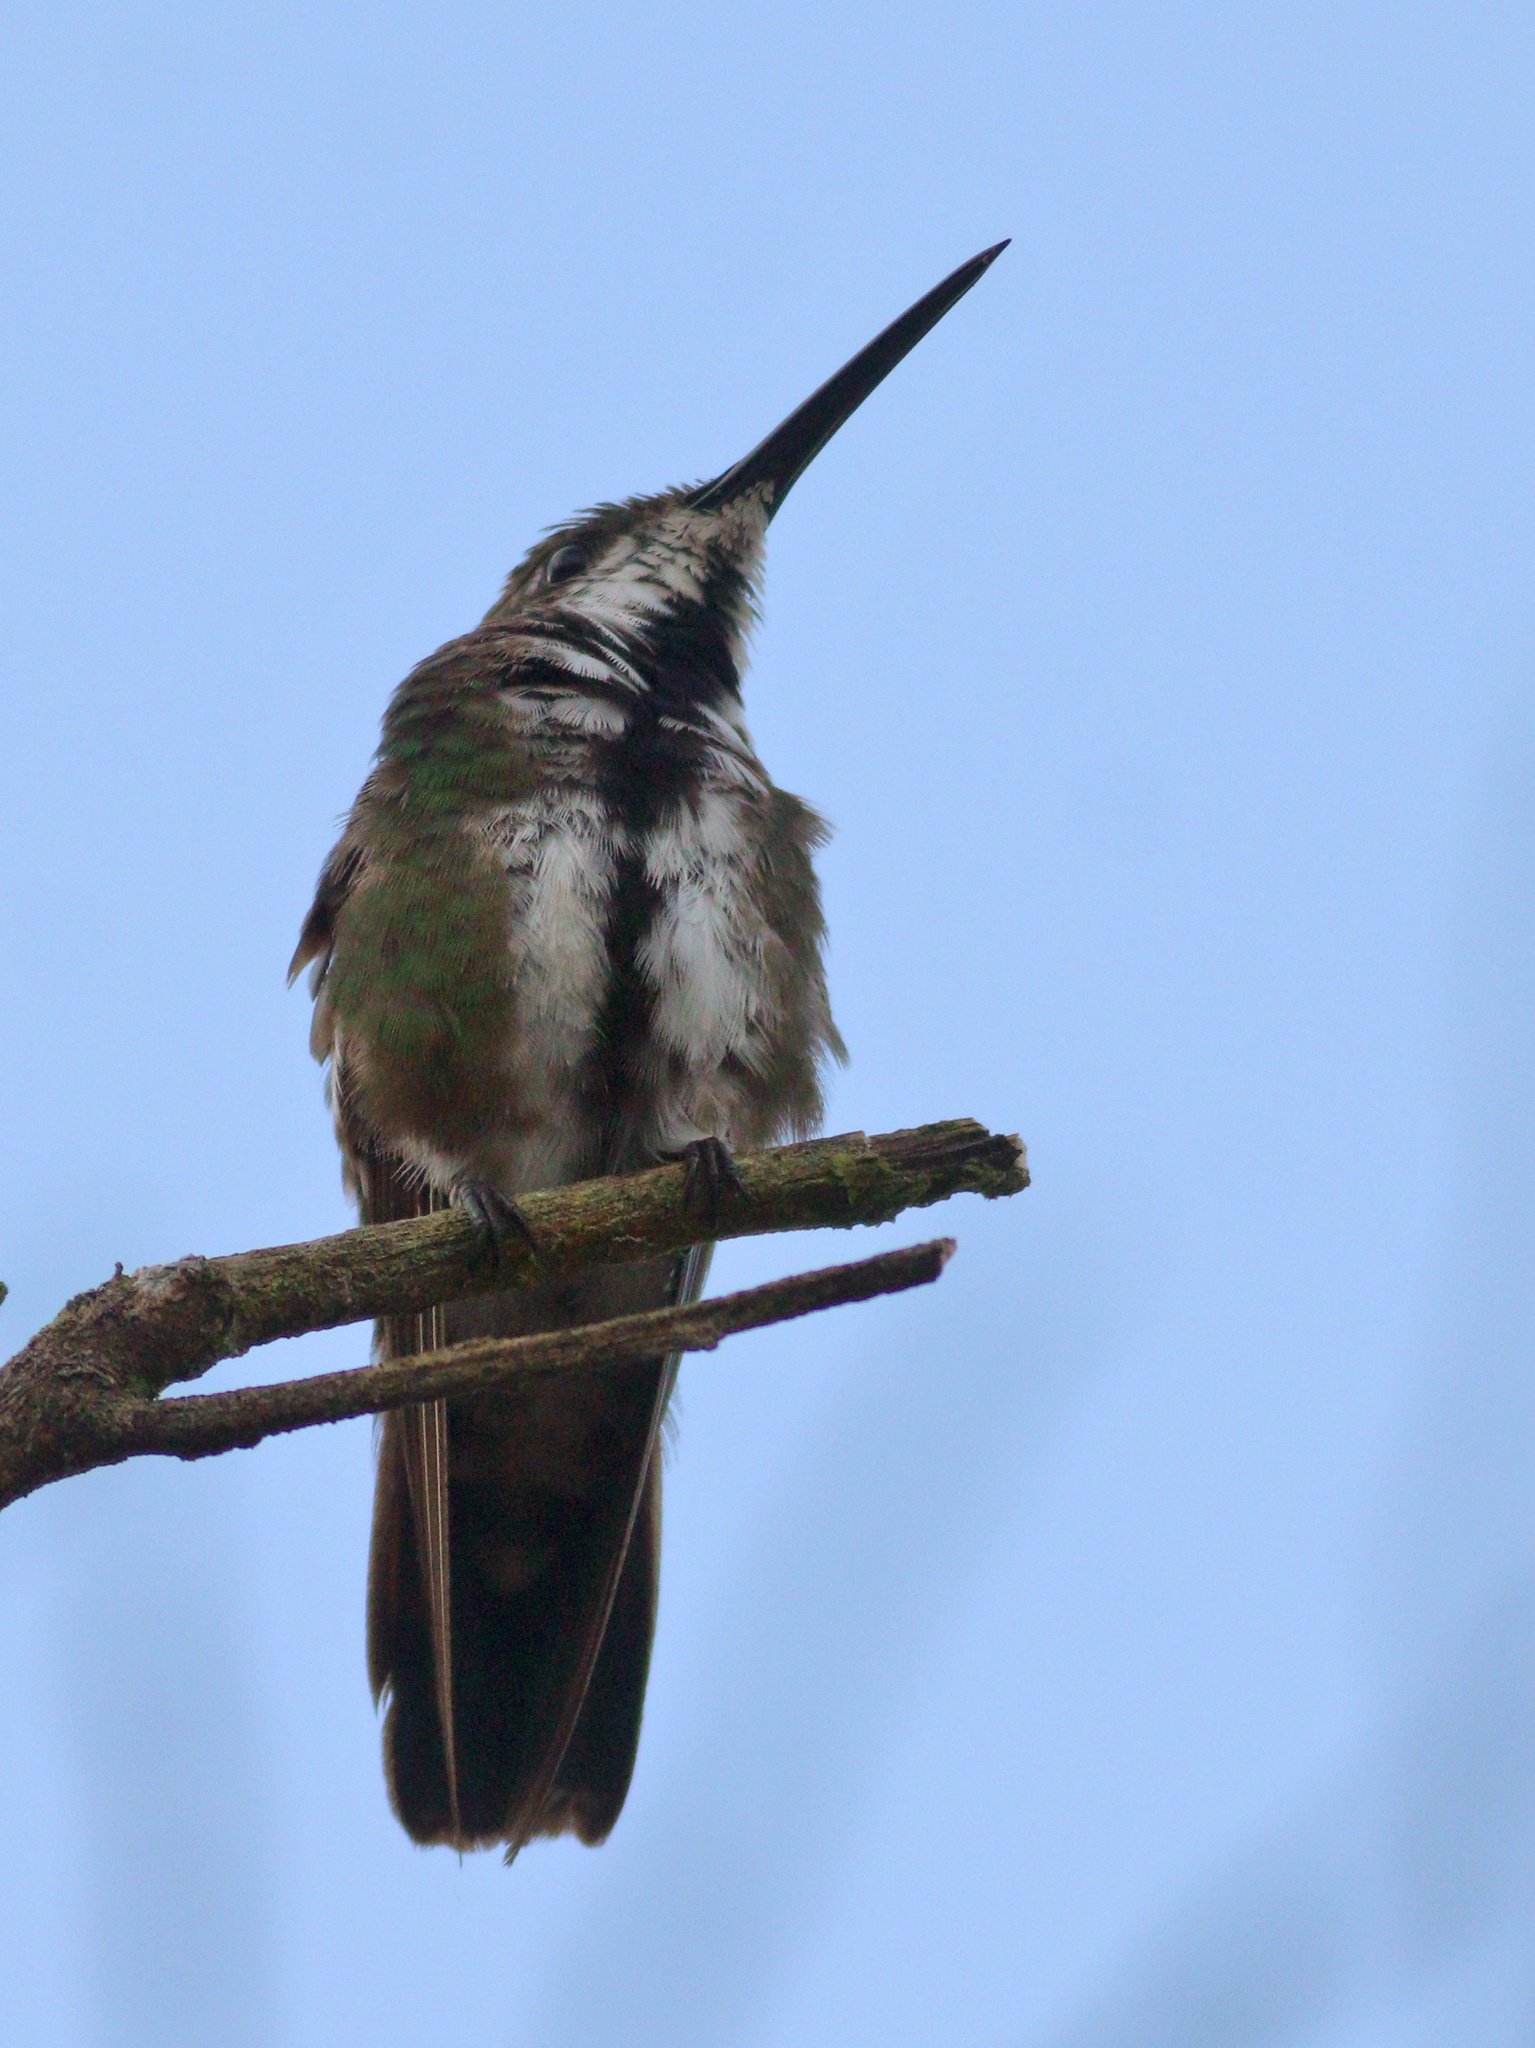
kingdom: Animalia
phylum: Chordata
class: Aves
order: Apodiformes
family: Trochilidae
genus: Anthracothorax
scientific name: Anthracothorax nigricollis
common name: Black-throated mango
